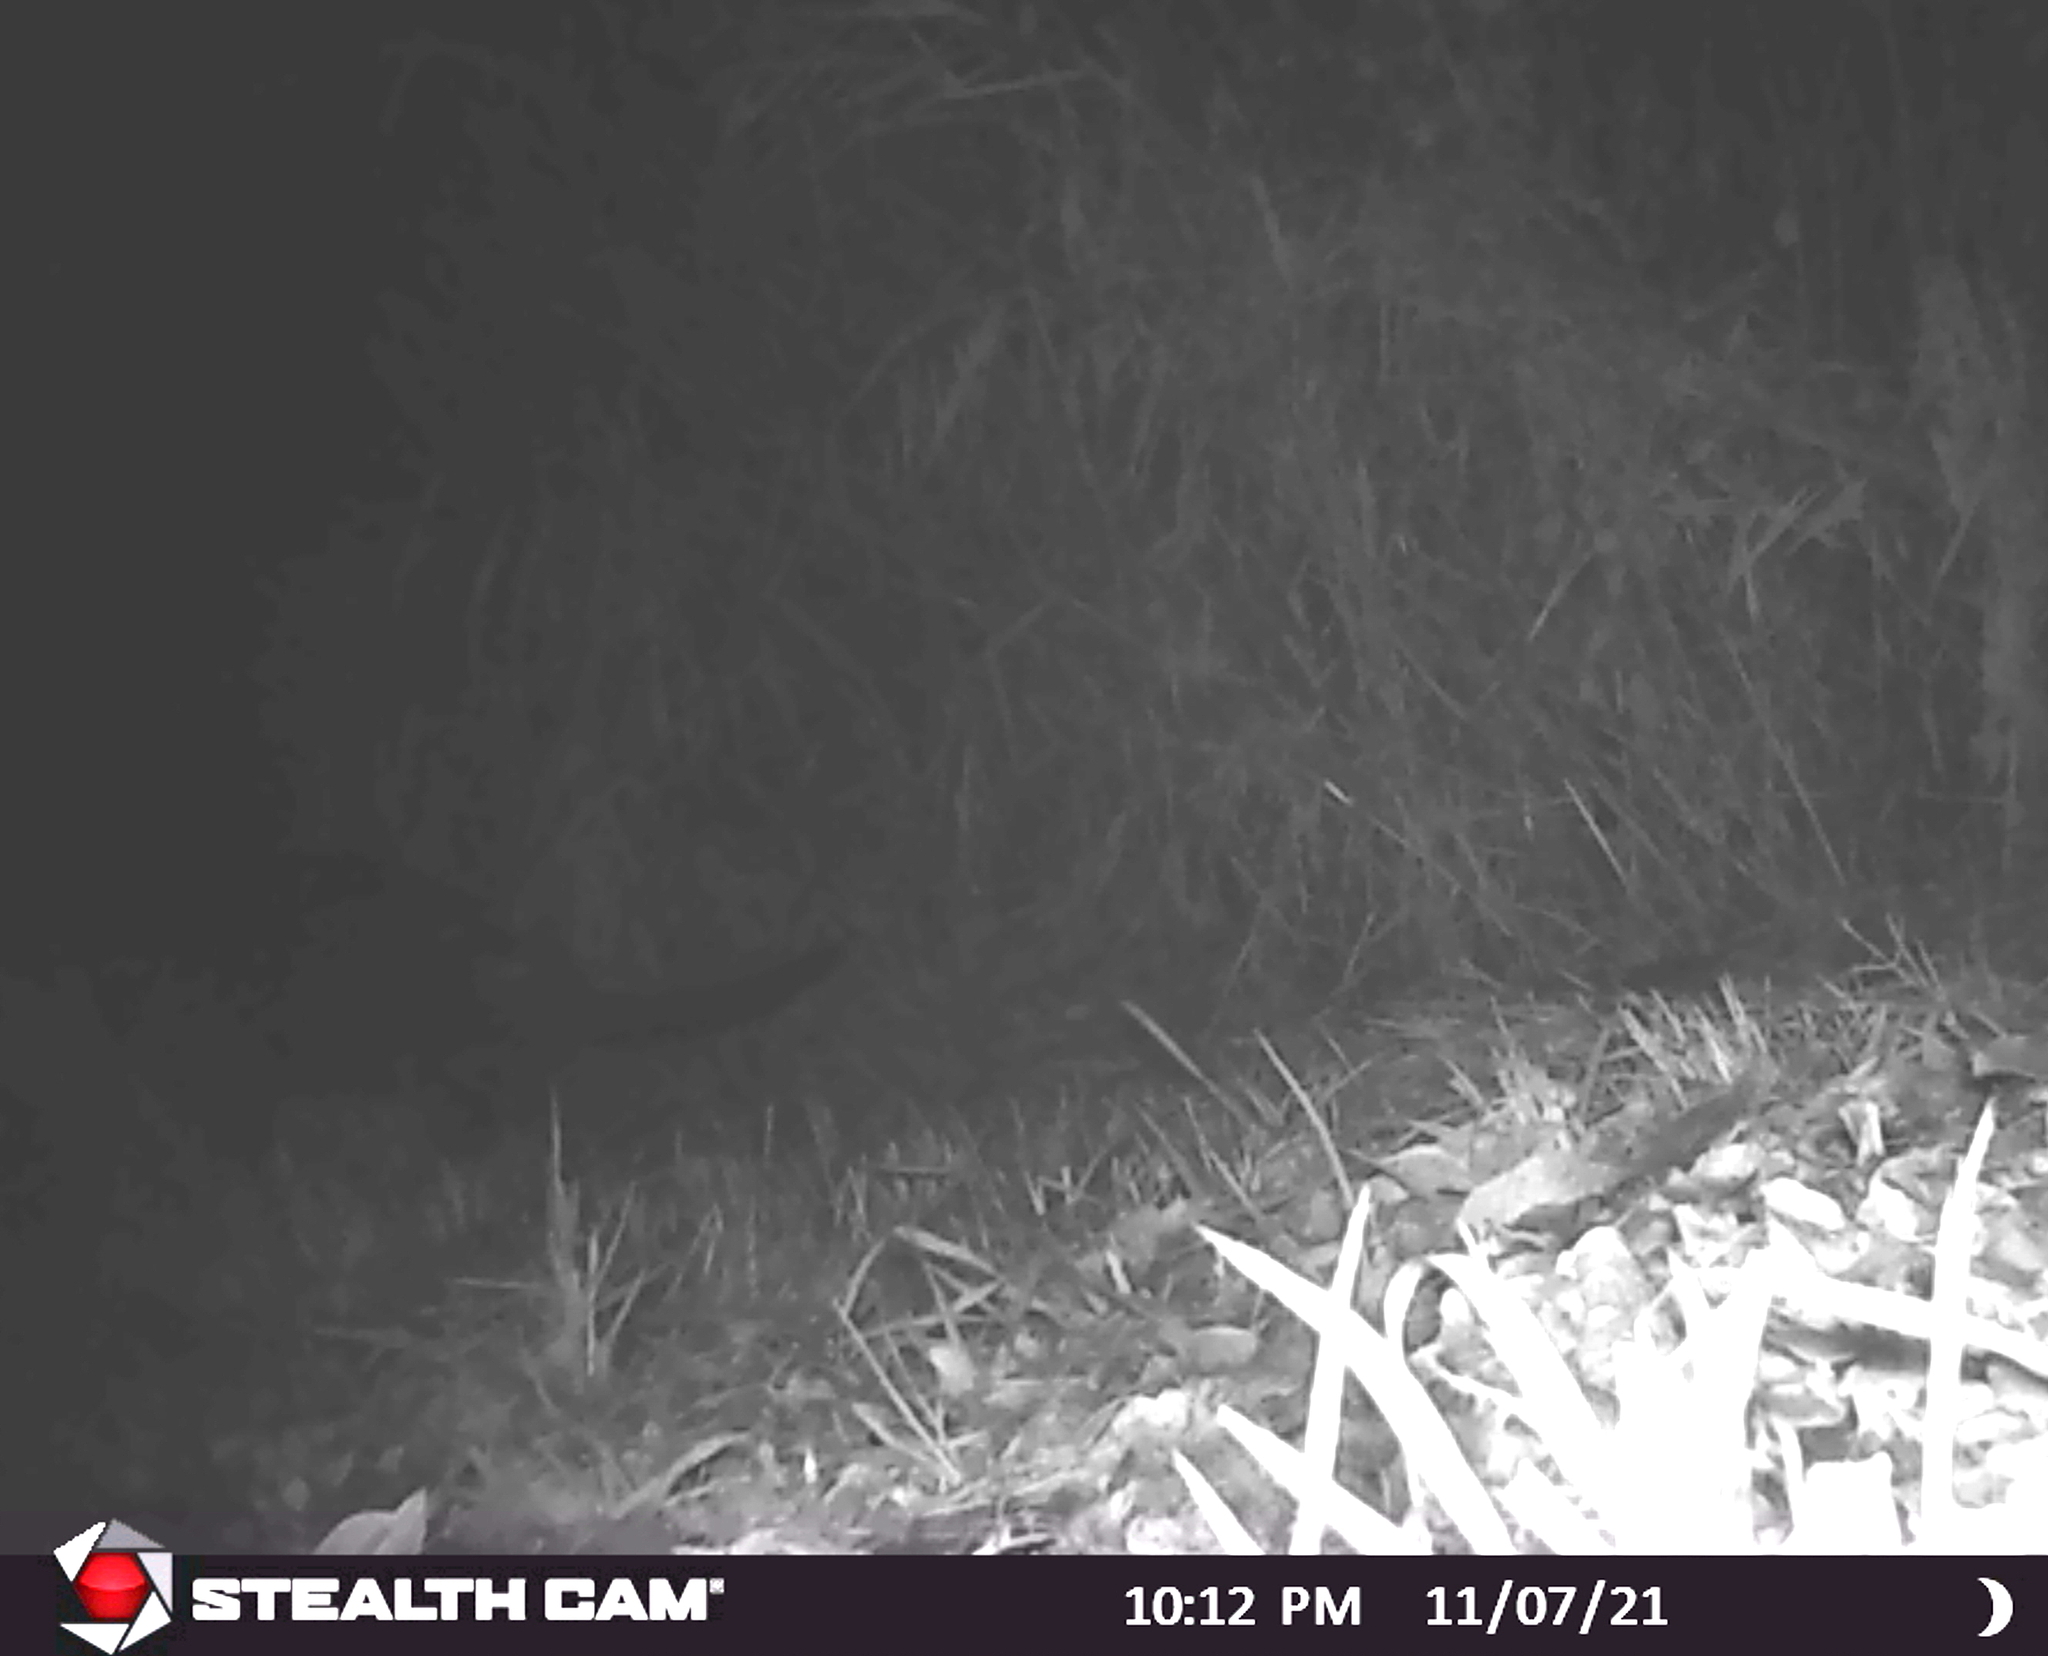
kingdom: Animalia
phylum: Chordata
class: Mammalia
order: Rodentia
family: Castoridae
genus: Castor
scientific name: Castor canadensis
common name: American beaver
